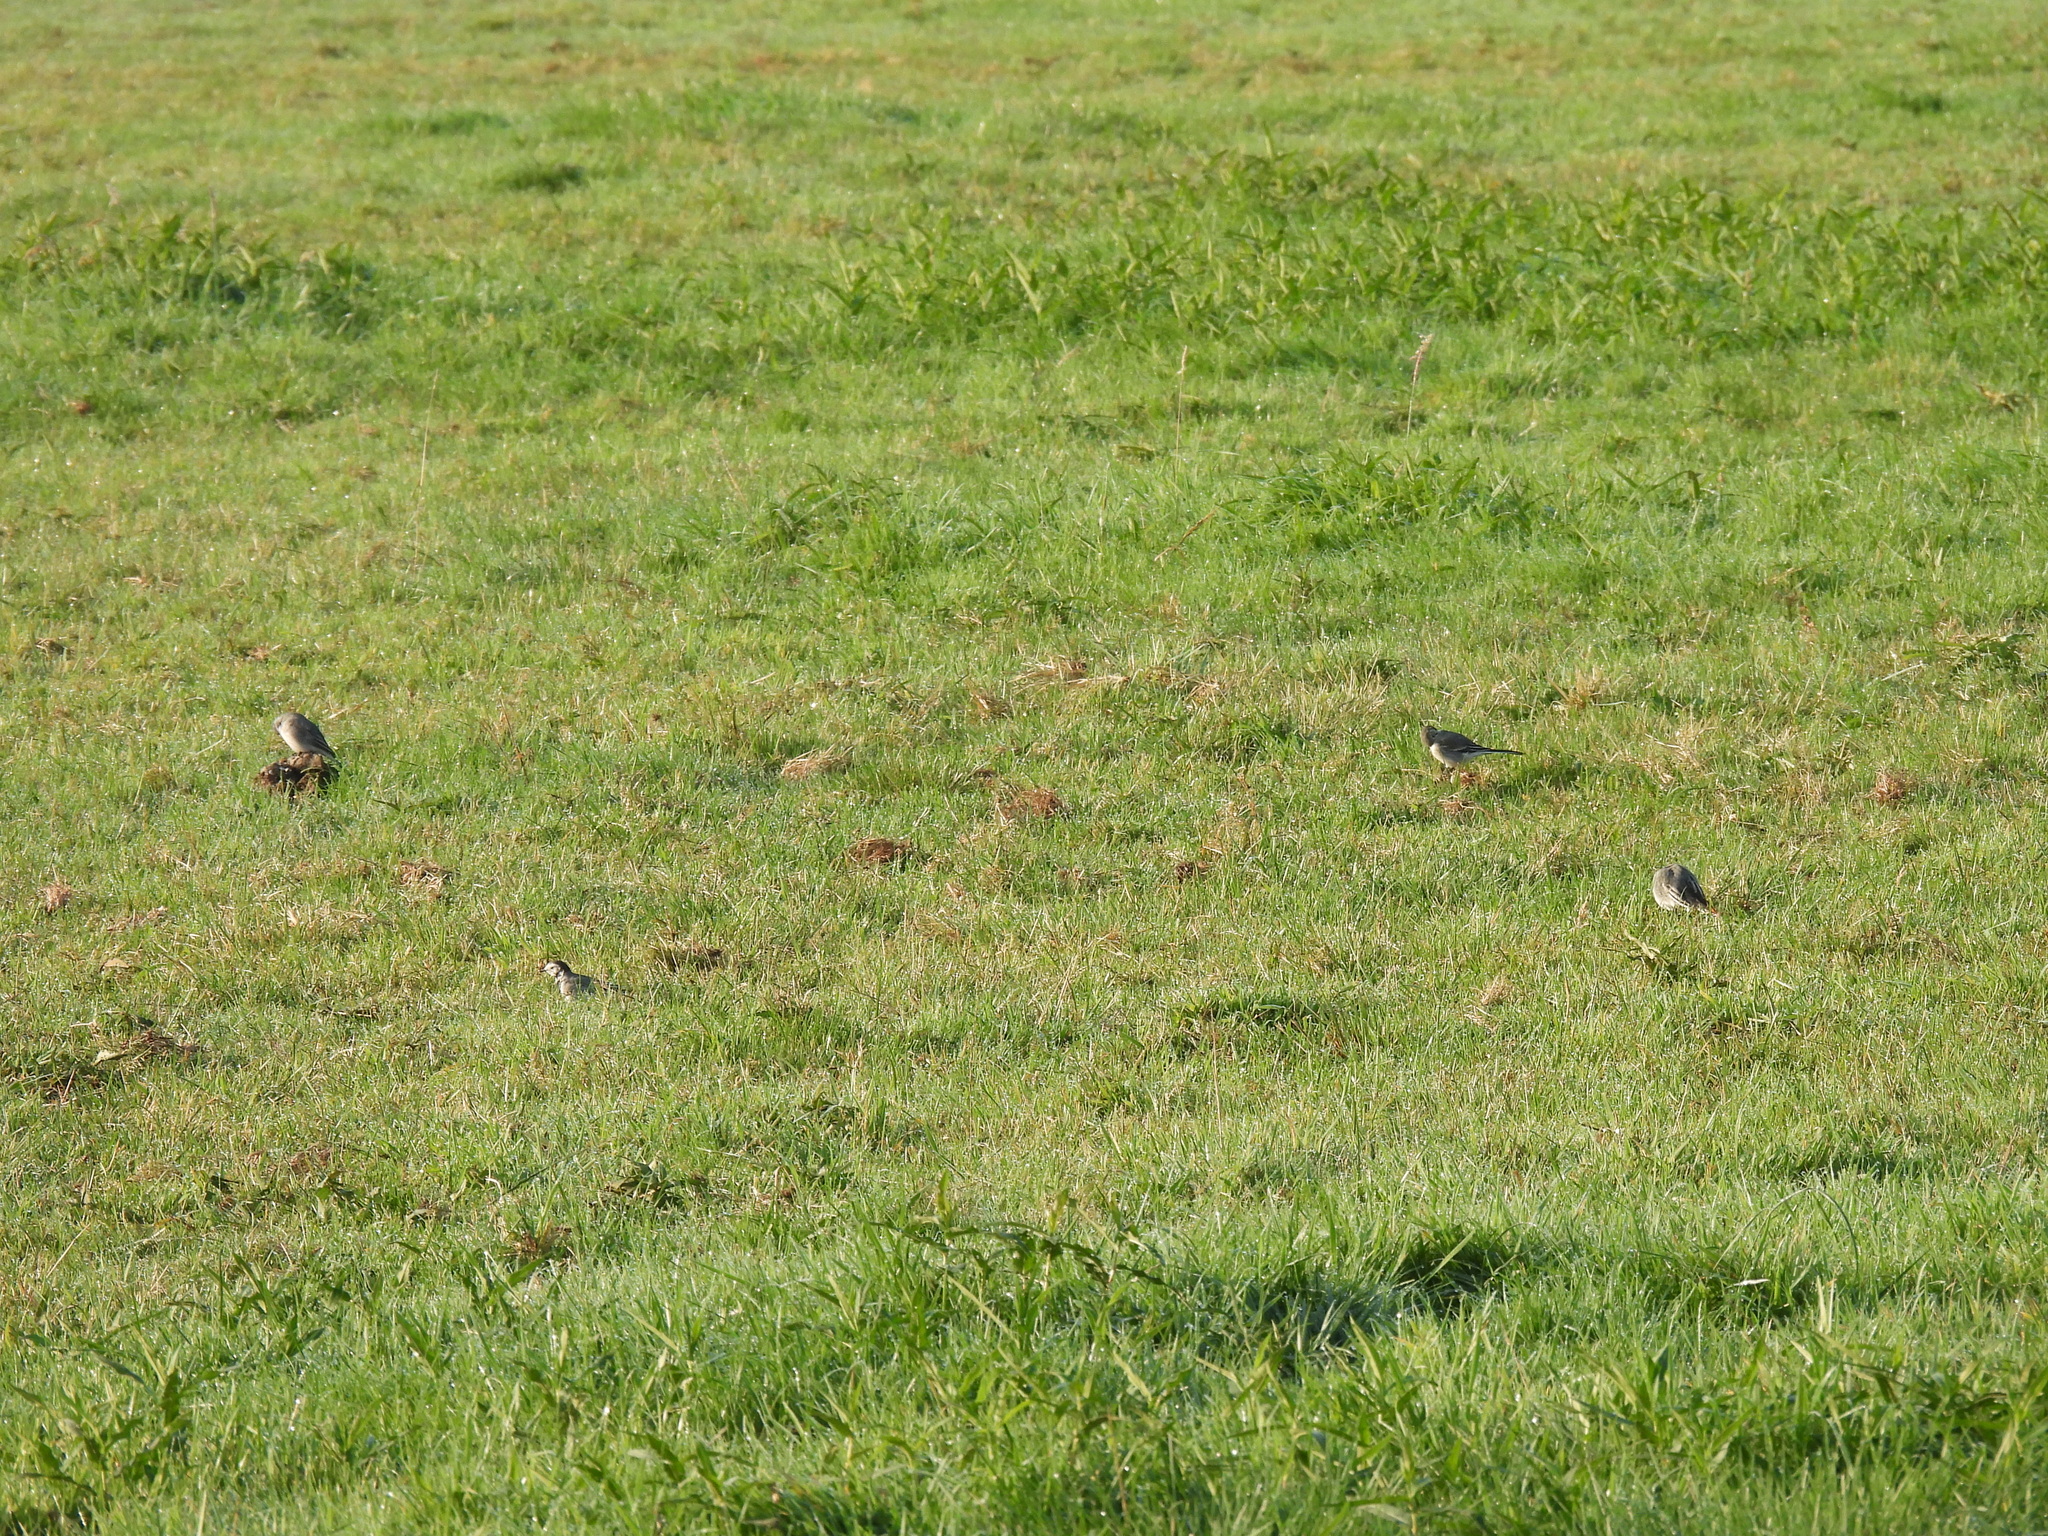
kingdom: Animalia
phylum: Chordata
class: Aves
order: Passeriformes
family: Motacillidae
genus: Motacilla
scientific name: Motacilla alba
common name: White wagtail
